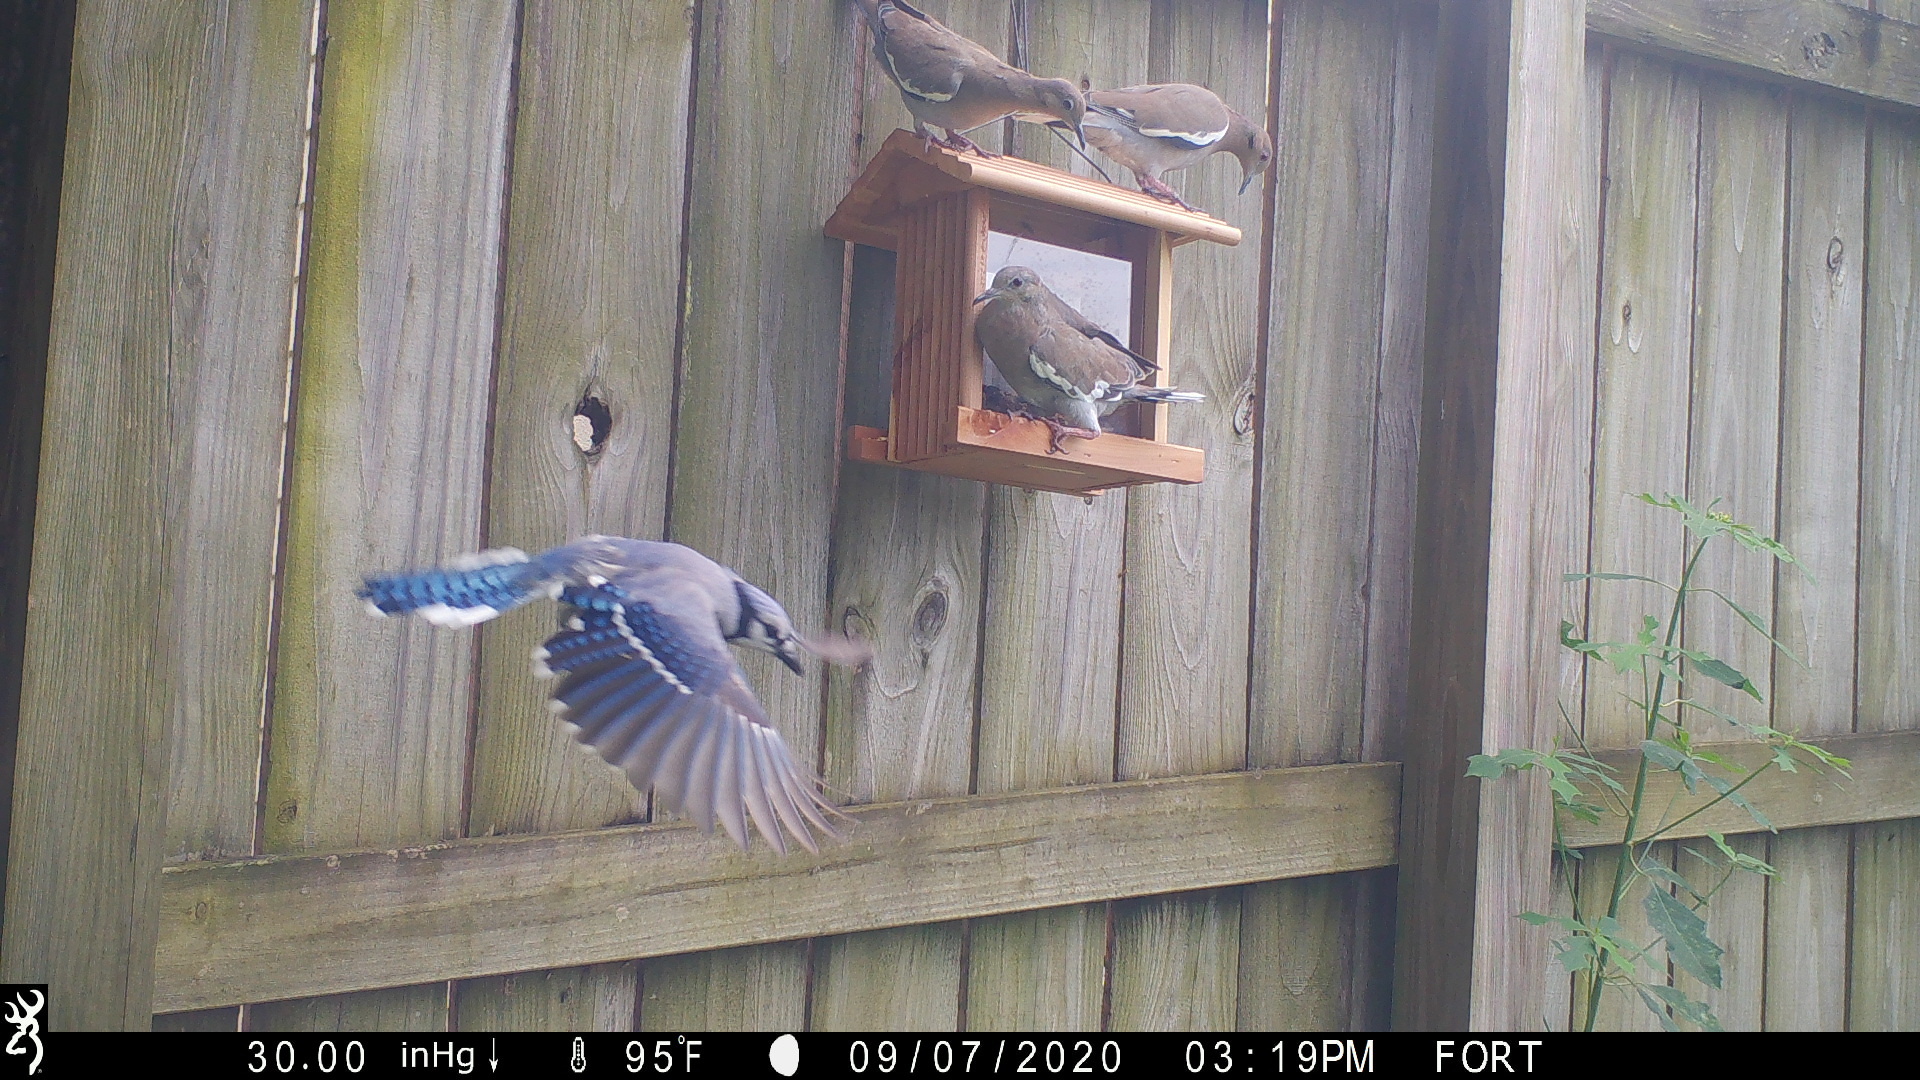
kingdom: Animalia
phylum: Chordata
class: Aves
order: Passeriformes
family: Corvidae
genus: Cyanocitta
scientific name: Cyanocitta cristata
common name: Blue jay
